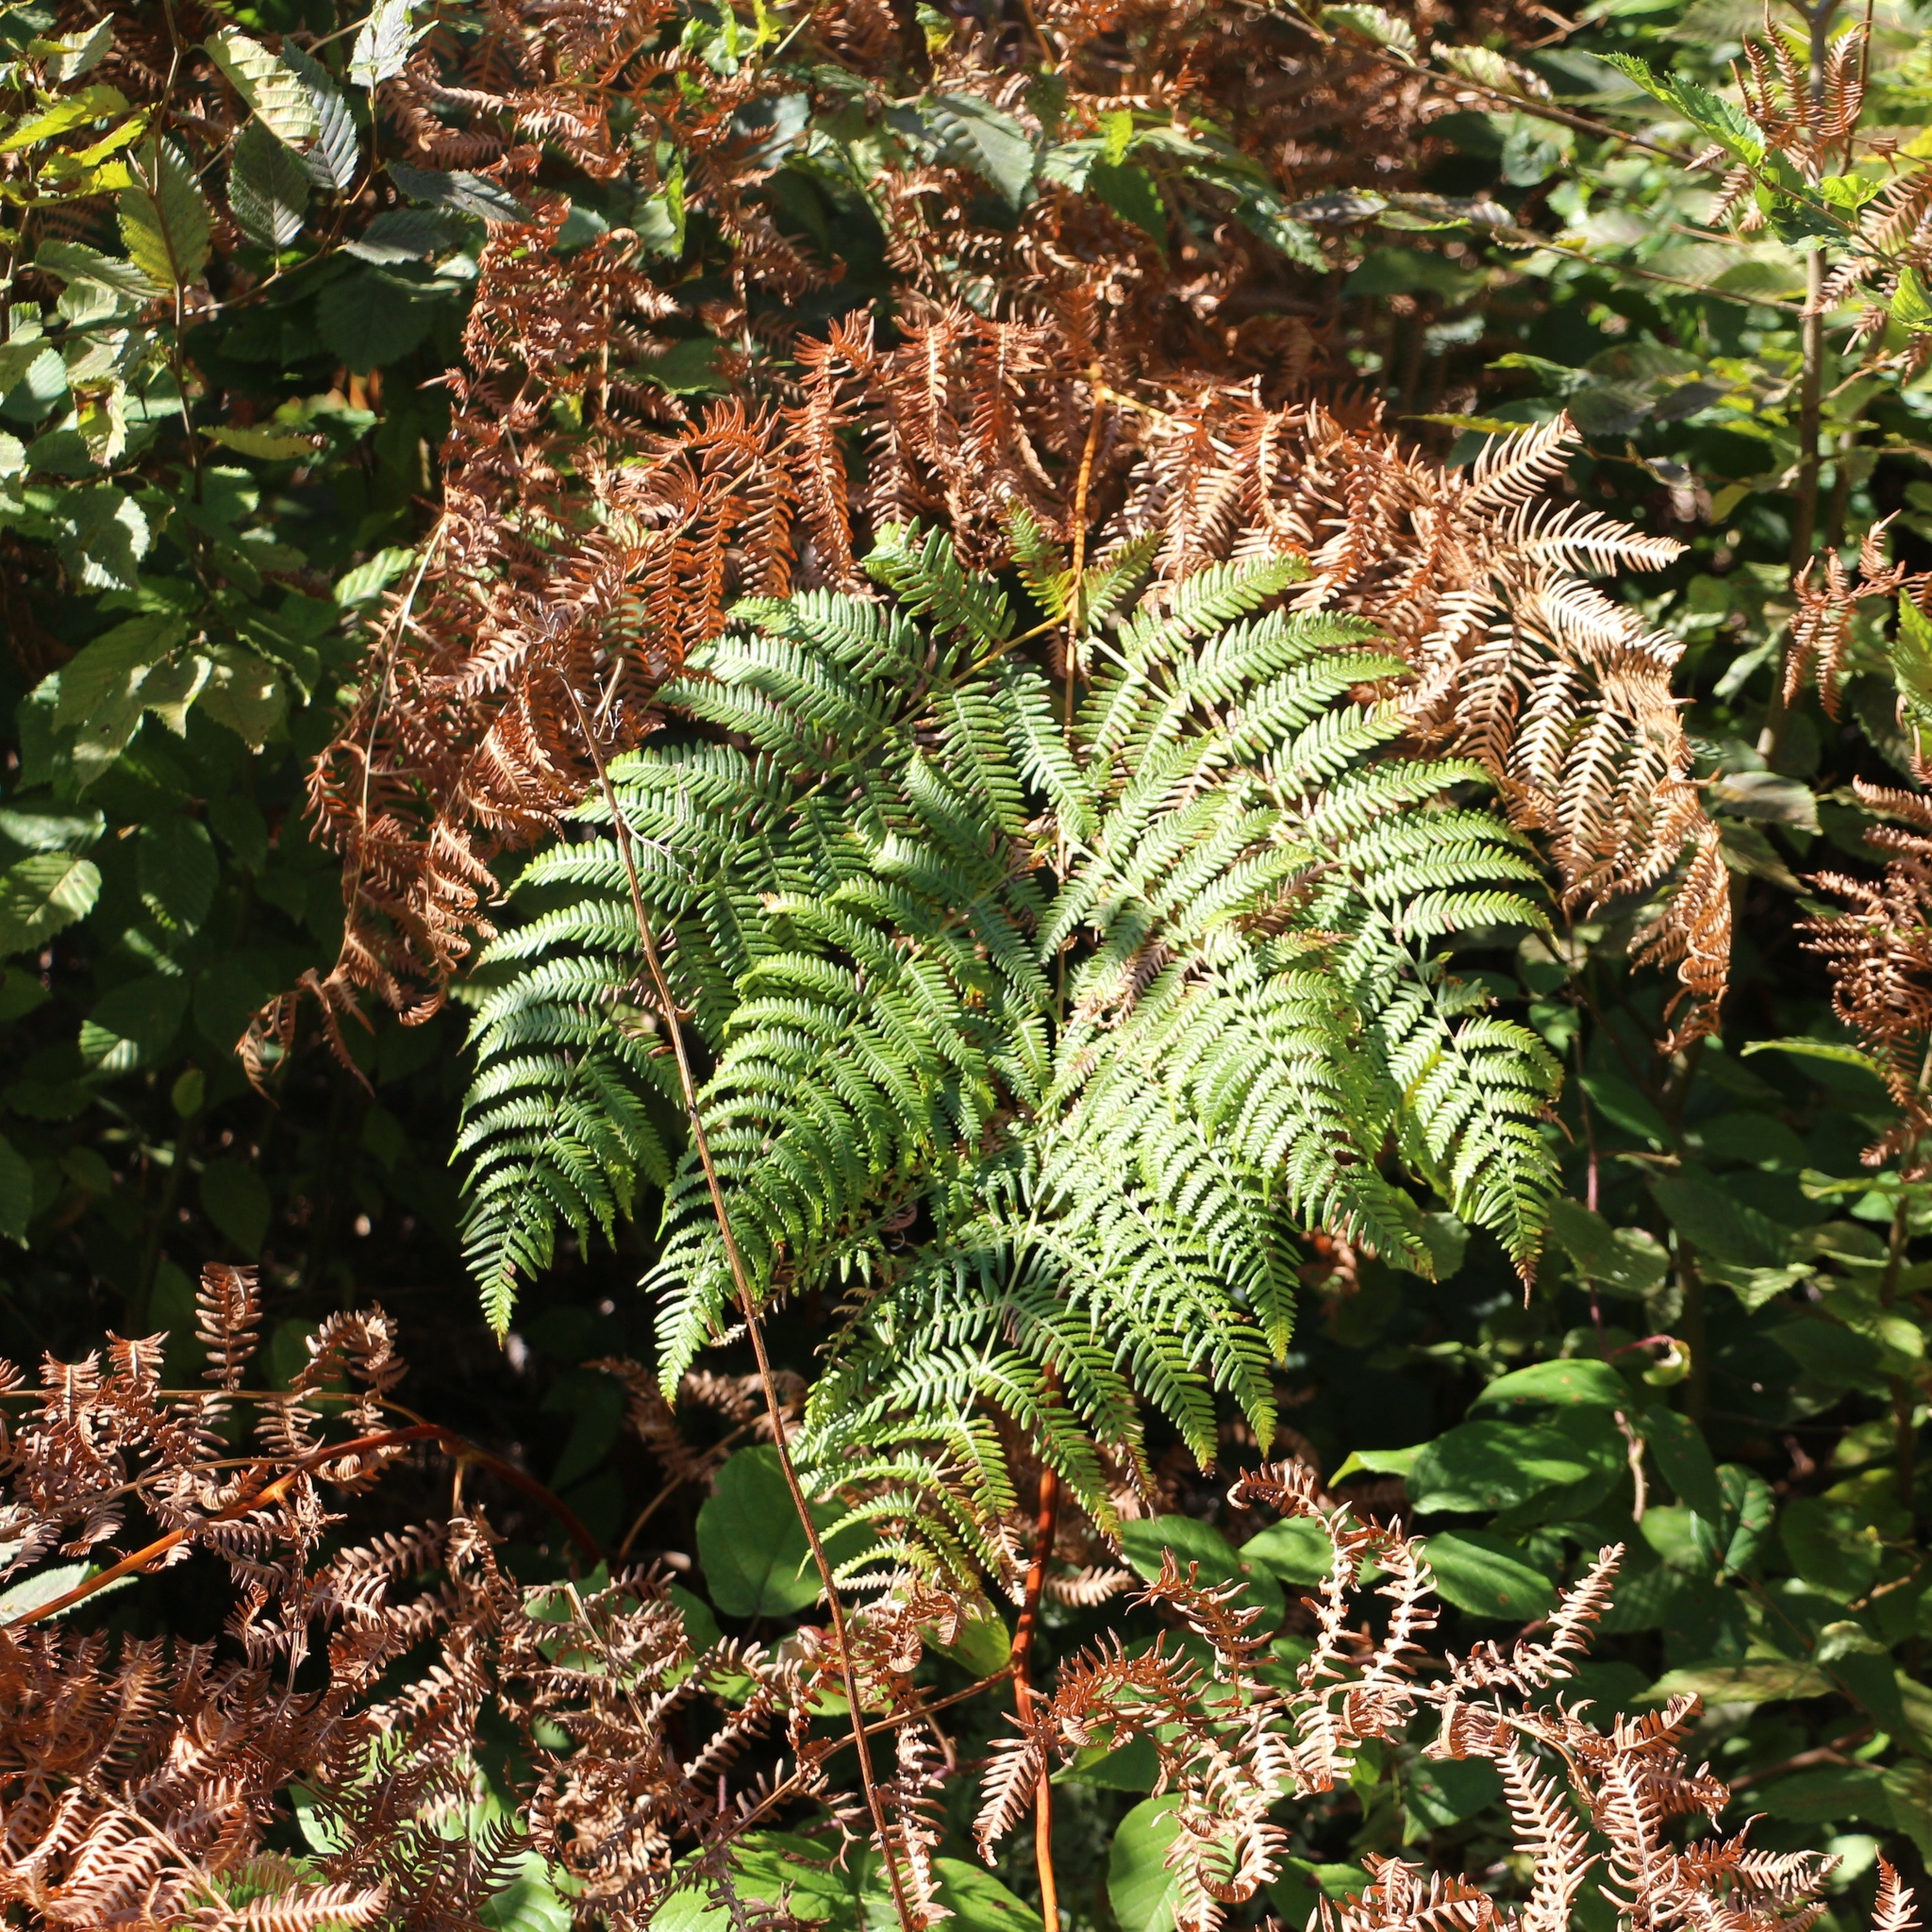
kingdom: Plantae
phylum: Tracheophyta
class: Polypodiopsida
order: Polypodiales
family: Dennstaedtiaceae
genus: Pteridium
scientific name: Pteridium tauricum
